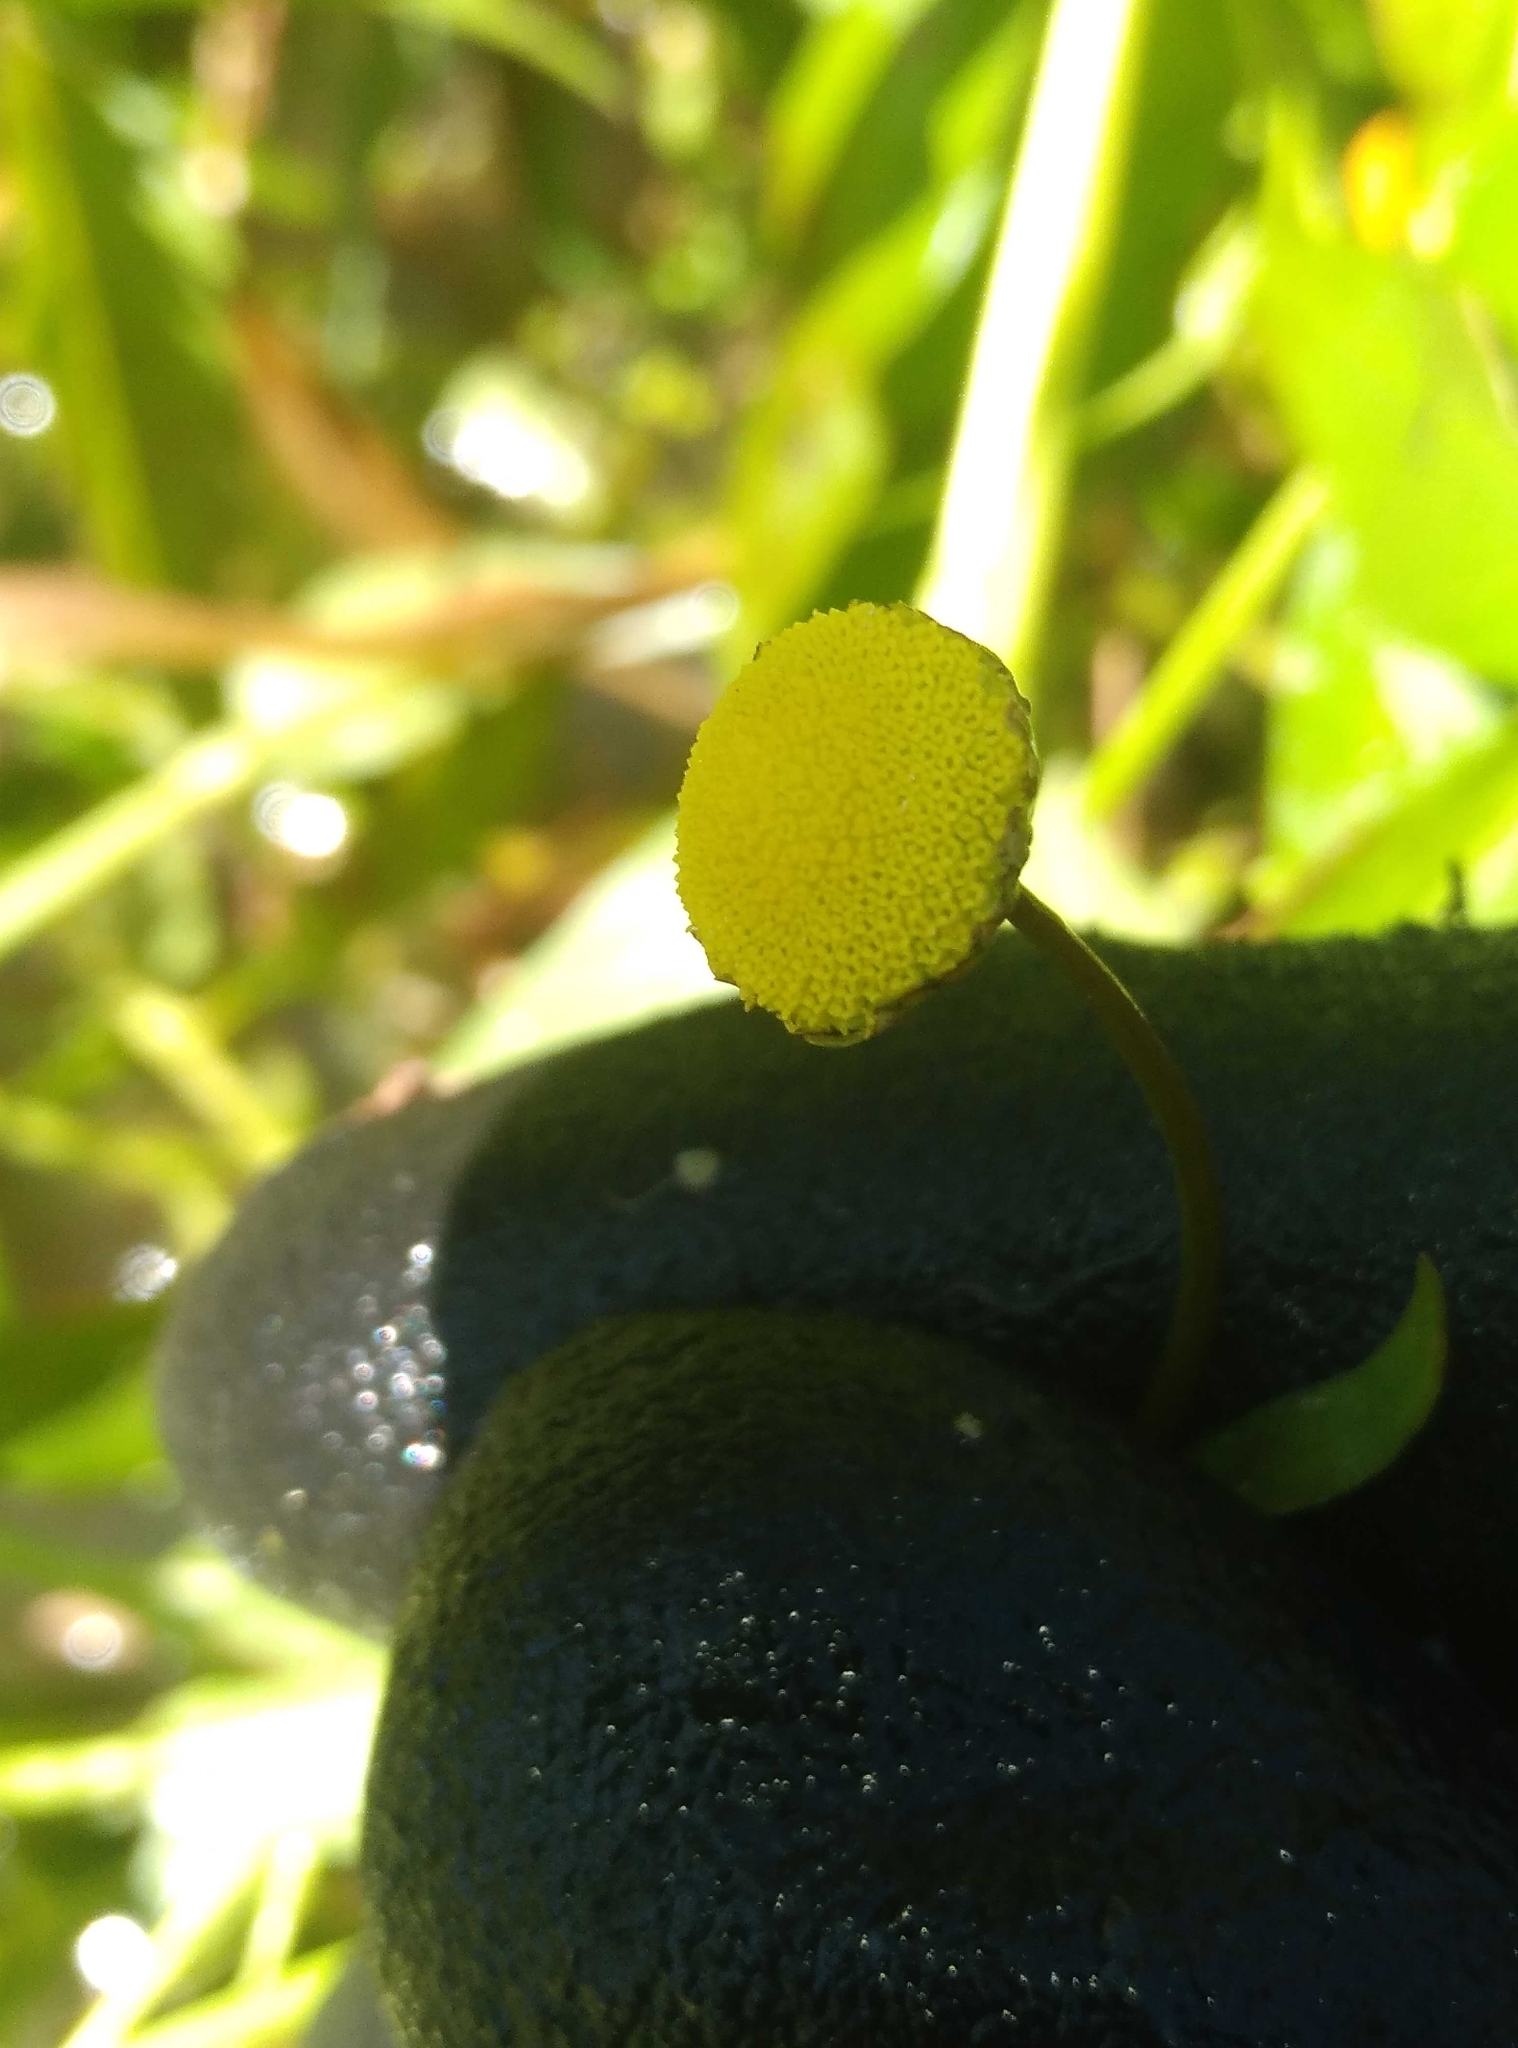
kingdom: Plantae
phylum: Tracheophyta
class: Magnoliopsida
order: Asterales
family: Asteraceae
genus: Cotula
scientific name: Cotula coronopifolia
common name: Buttonweed
